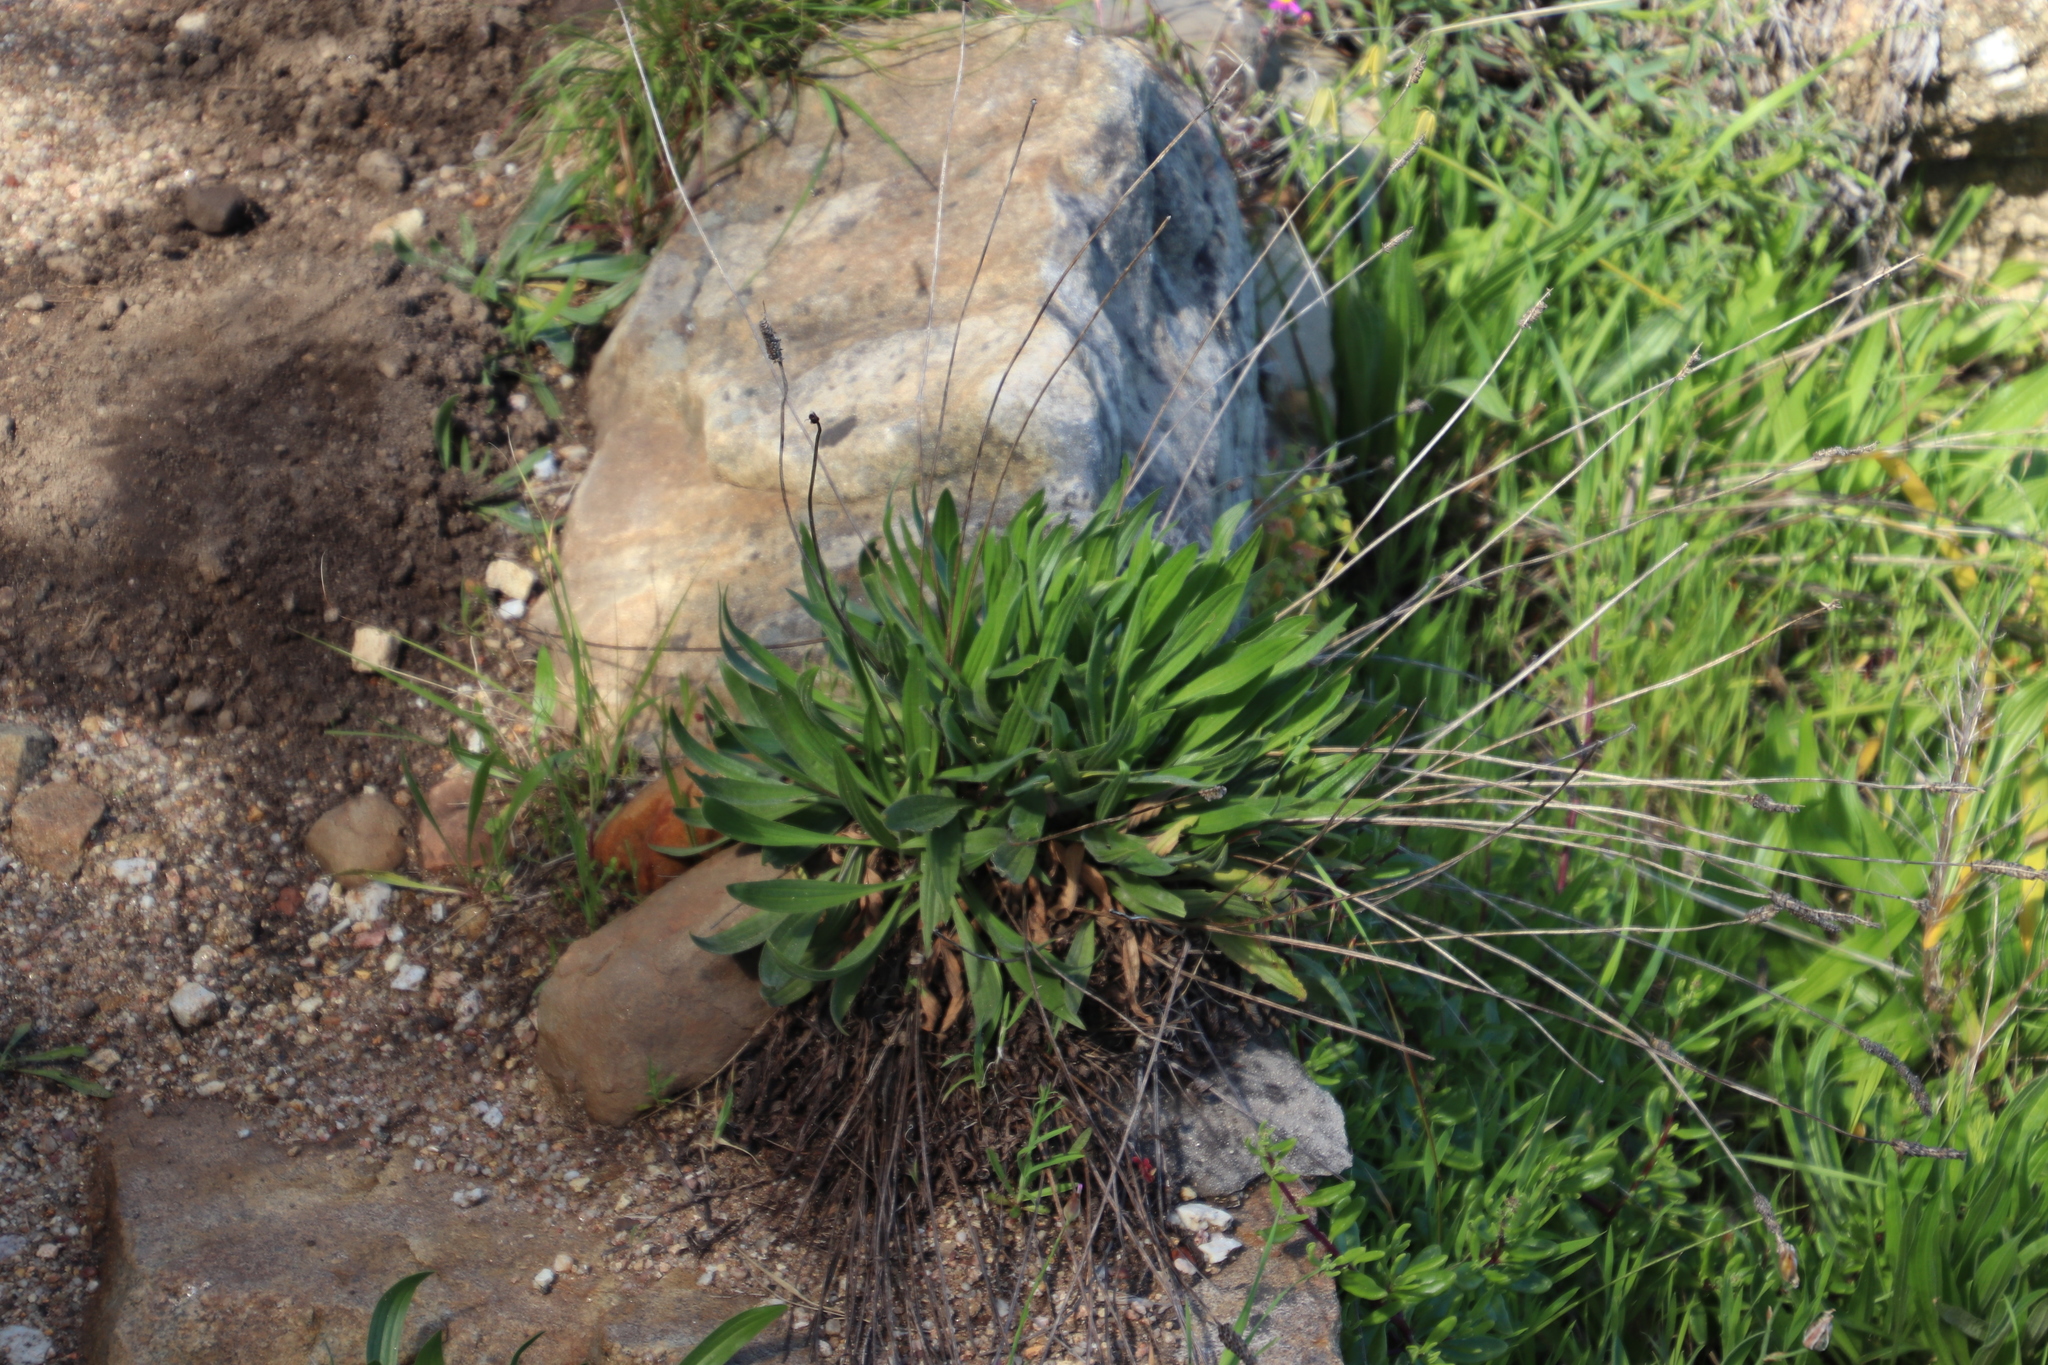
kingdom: Plantae
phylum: Tracheophyta
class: Magnoliopsida
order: Lamiales
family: Plantaginaceae
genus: Plantago
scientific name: Plantago lanceolata
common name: Ribwort plantain
